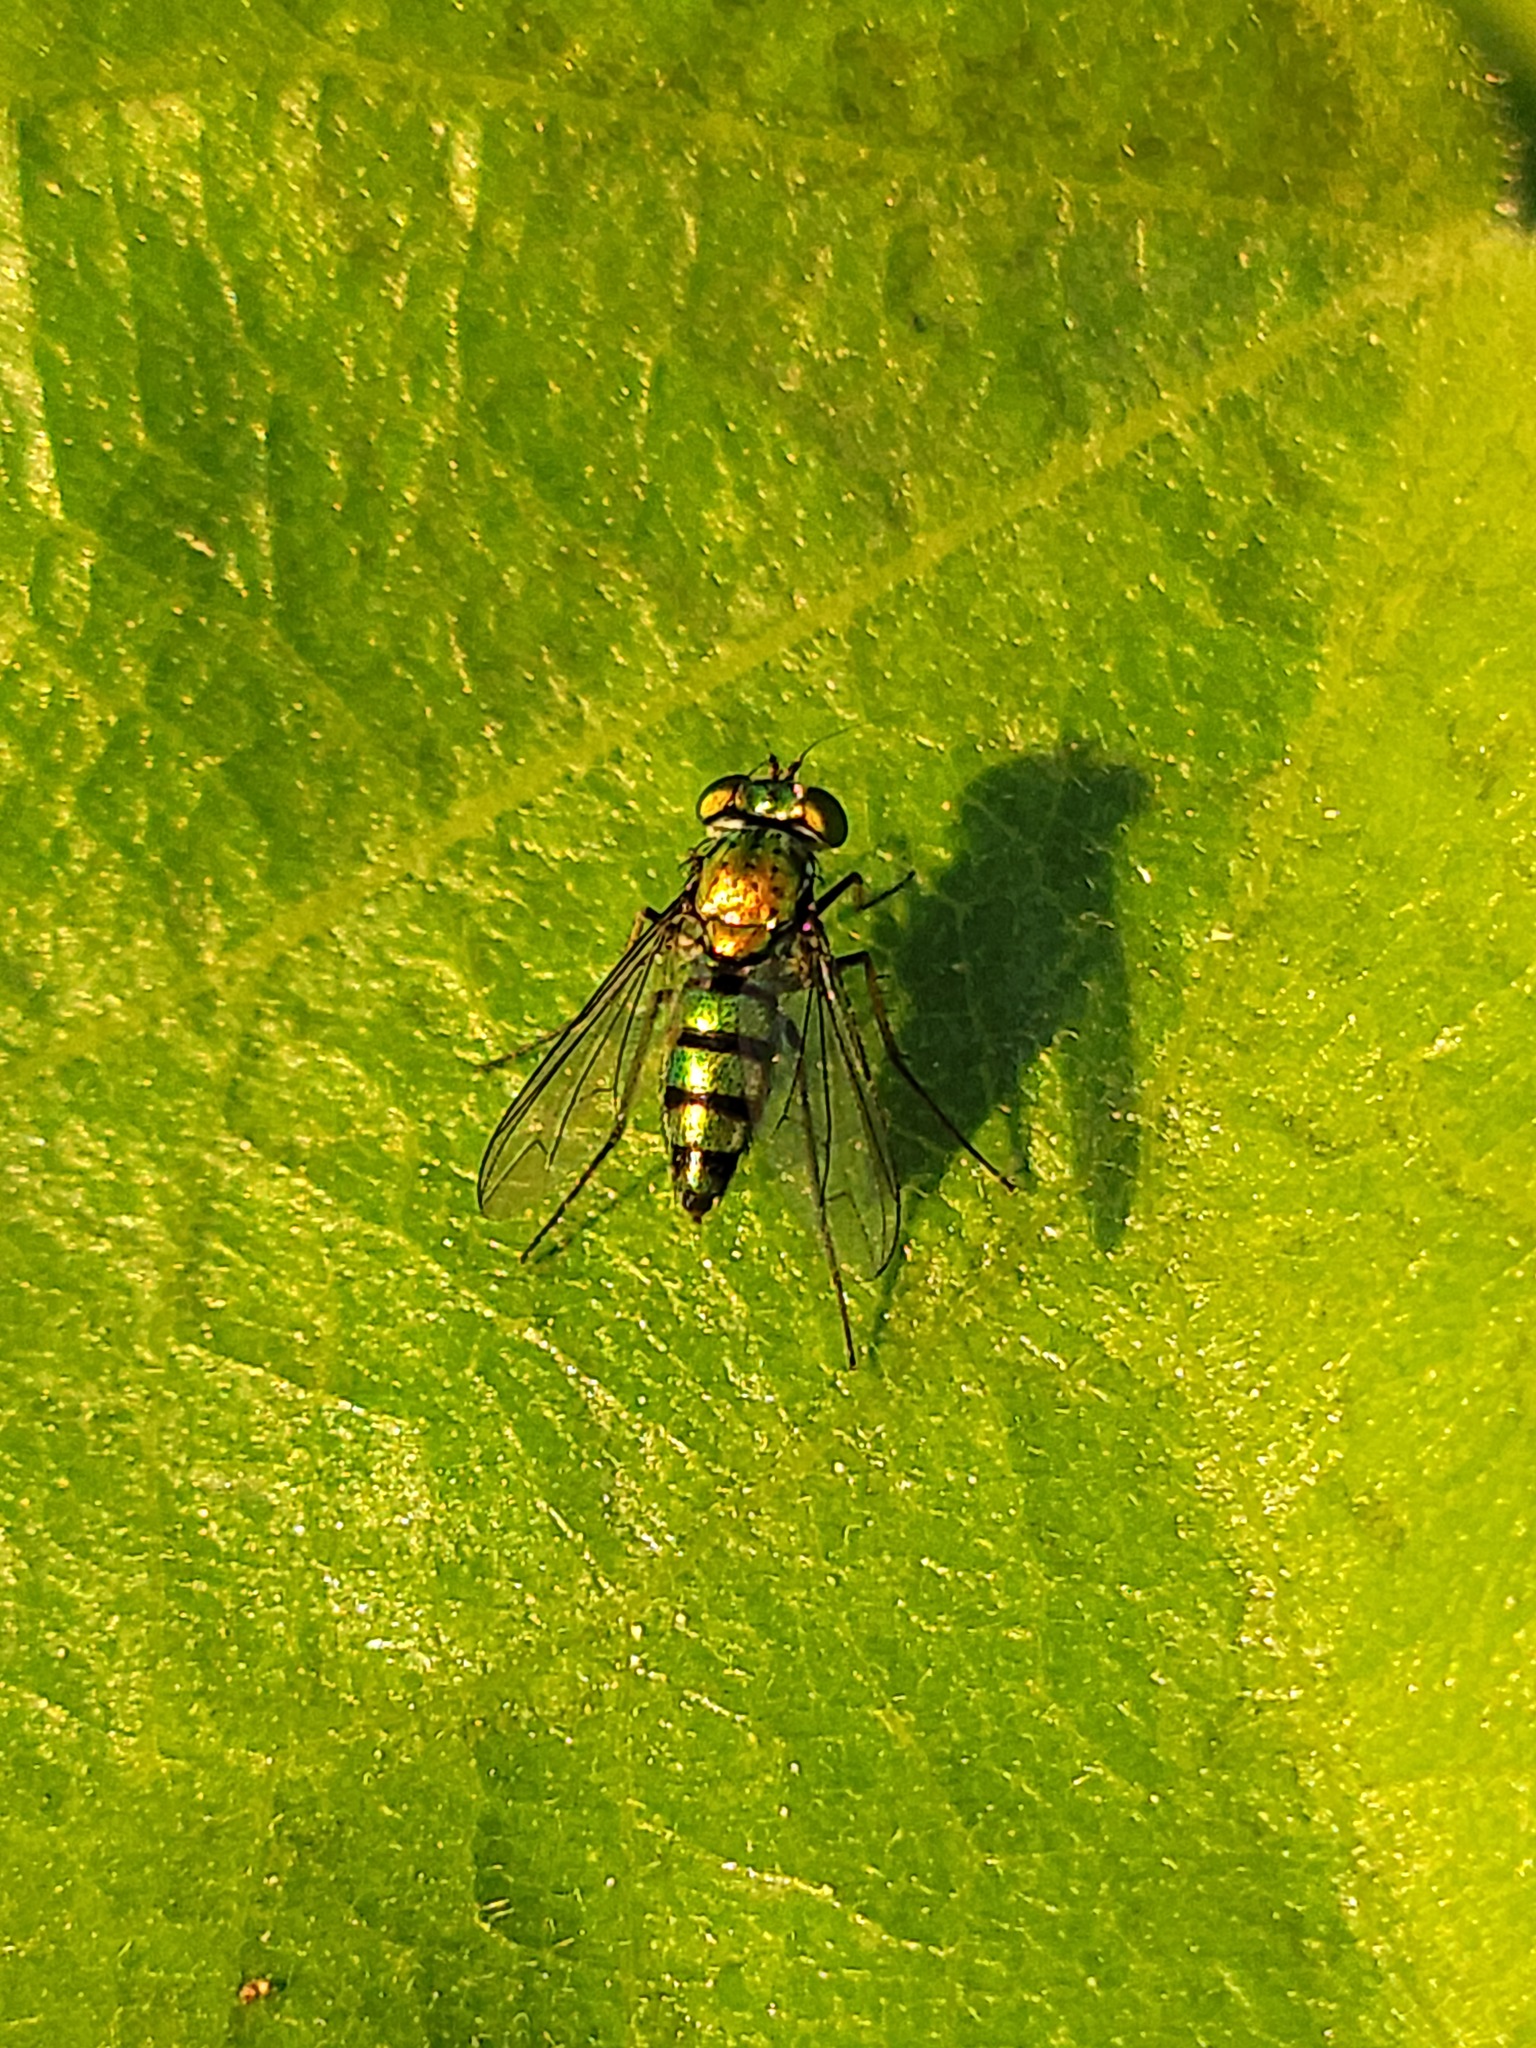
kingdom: Animalia
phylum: Arthropoda
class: Insecta
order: Diptera
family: Dolichopodidae
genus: Condylostylus
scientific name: Condylostylus longicornis
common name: Long-legged fly
